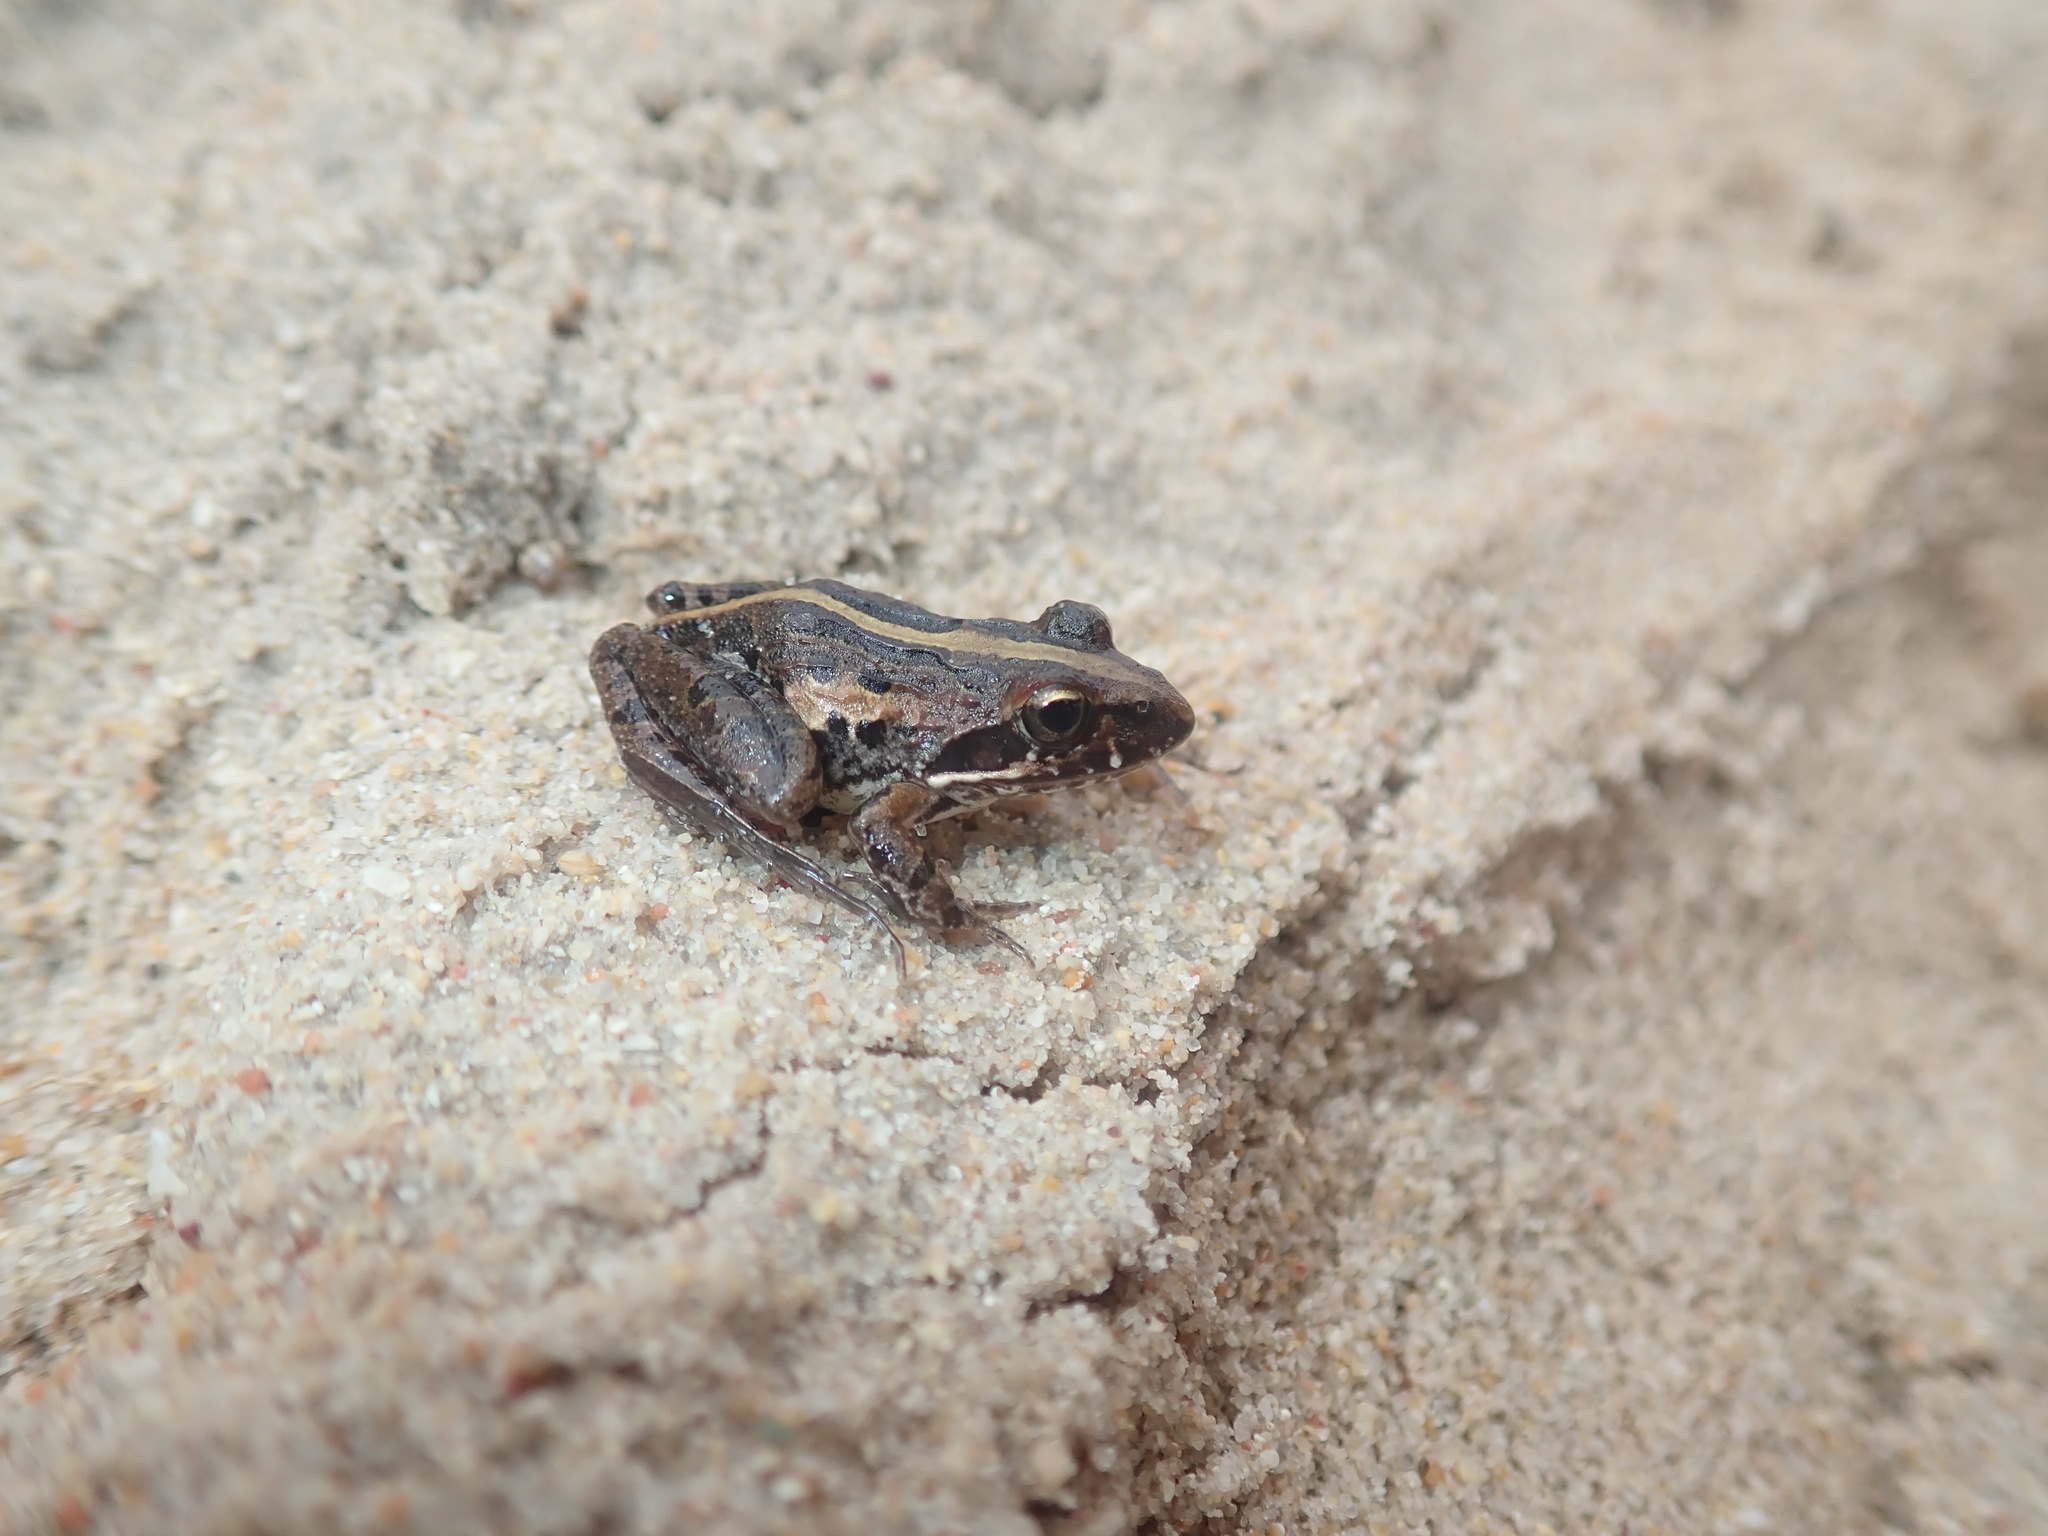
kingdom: Animalia
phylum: Chordata
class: Amphibia
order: Anura
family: Pyxicephalidae
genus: Strongylopus
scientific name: Strongylopus grayii
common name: Gray's stream frog
